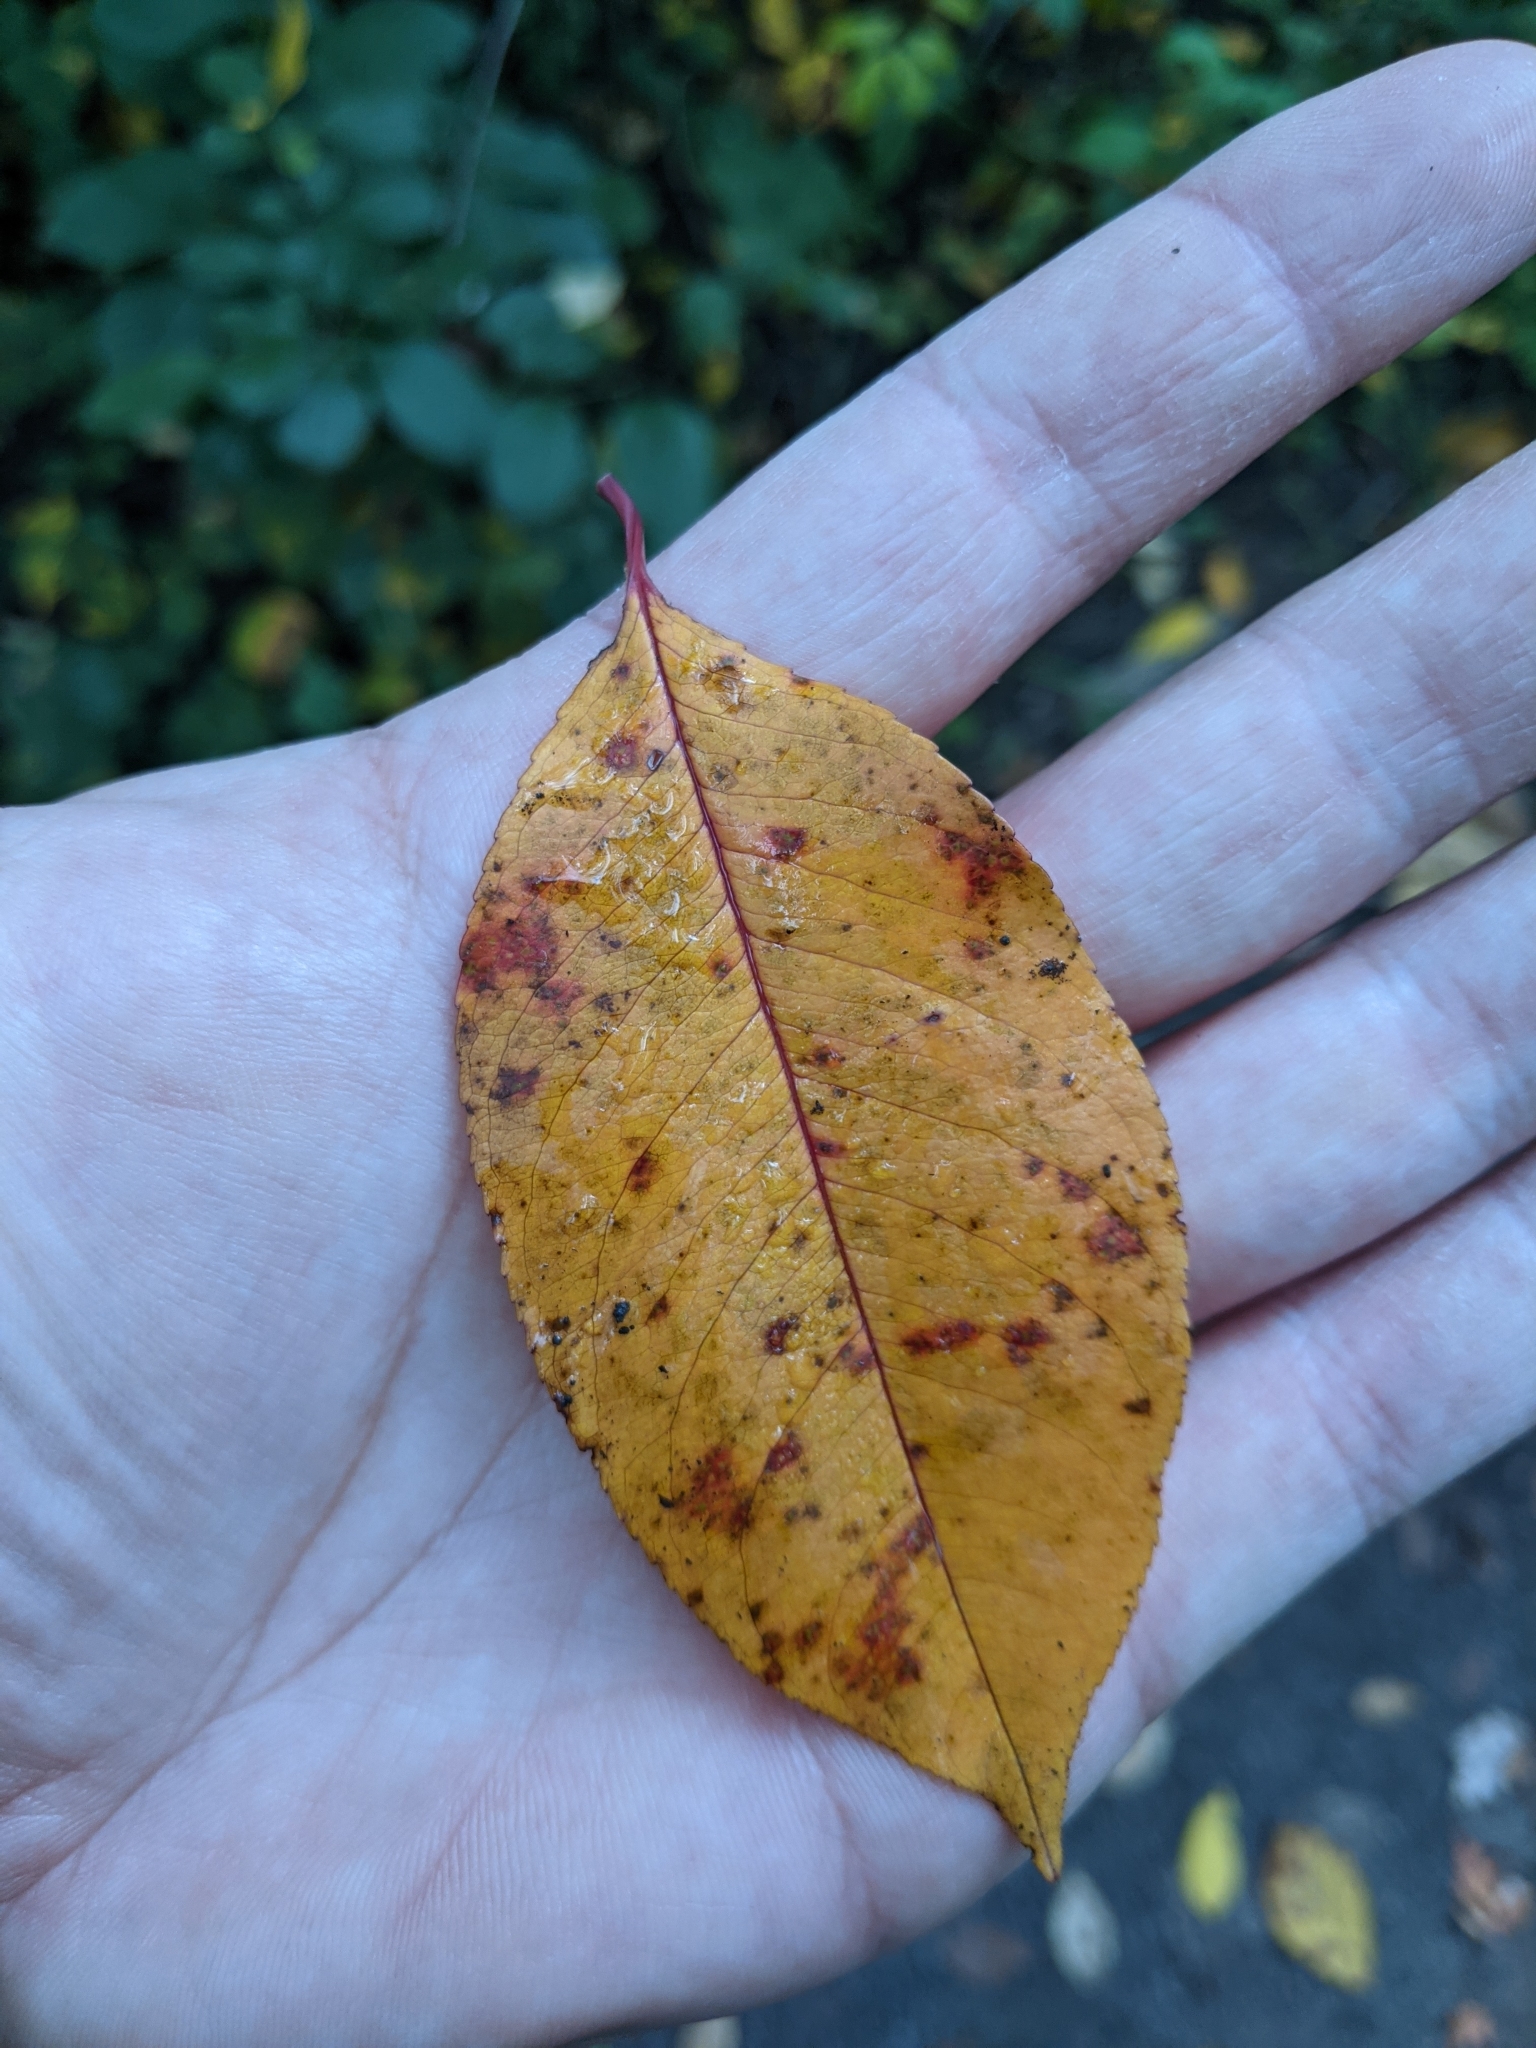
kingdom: Plantae
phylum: Tracheophyta
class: Magnoliopsida
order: Rosales
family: Rosaceae
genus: Prunus
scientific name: Prunus serotina
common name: Black cherry
